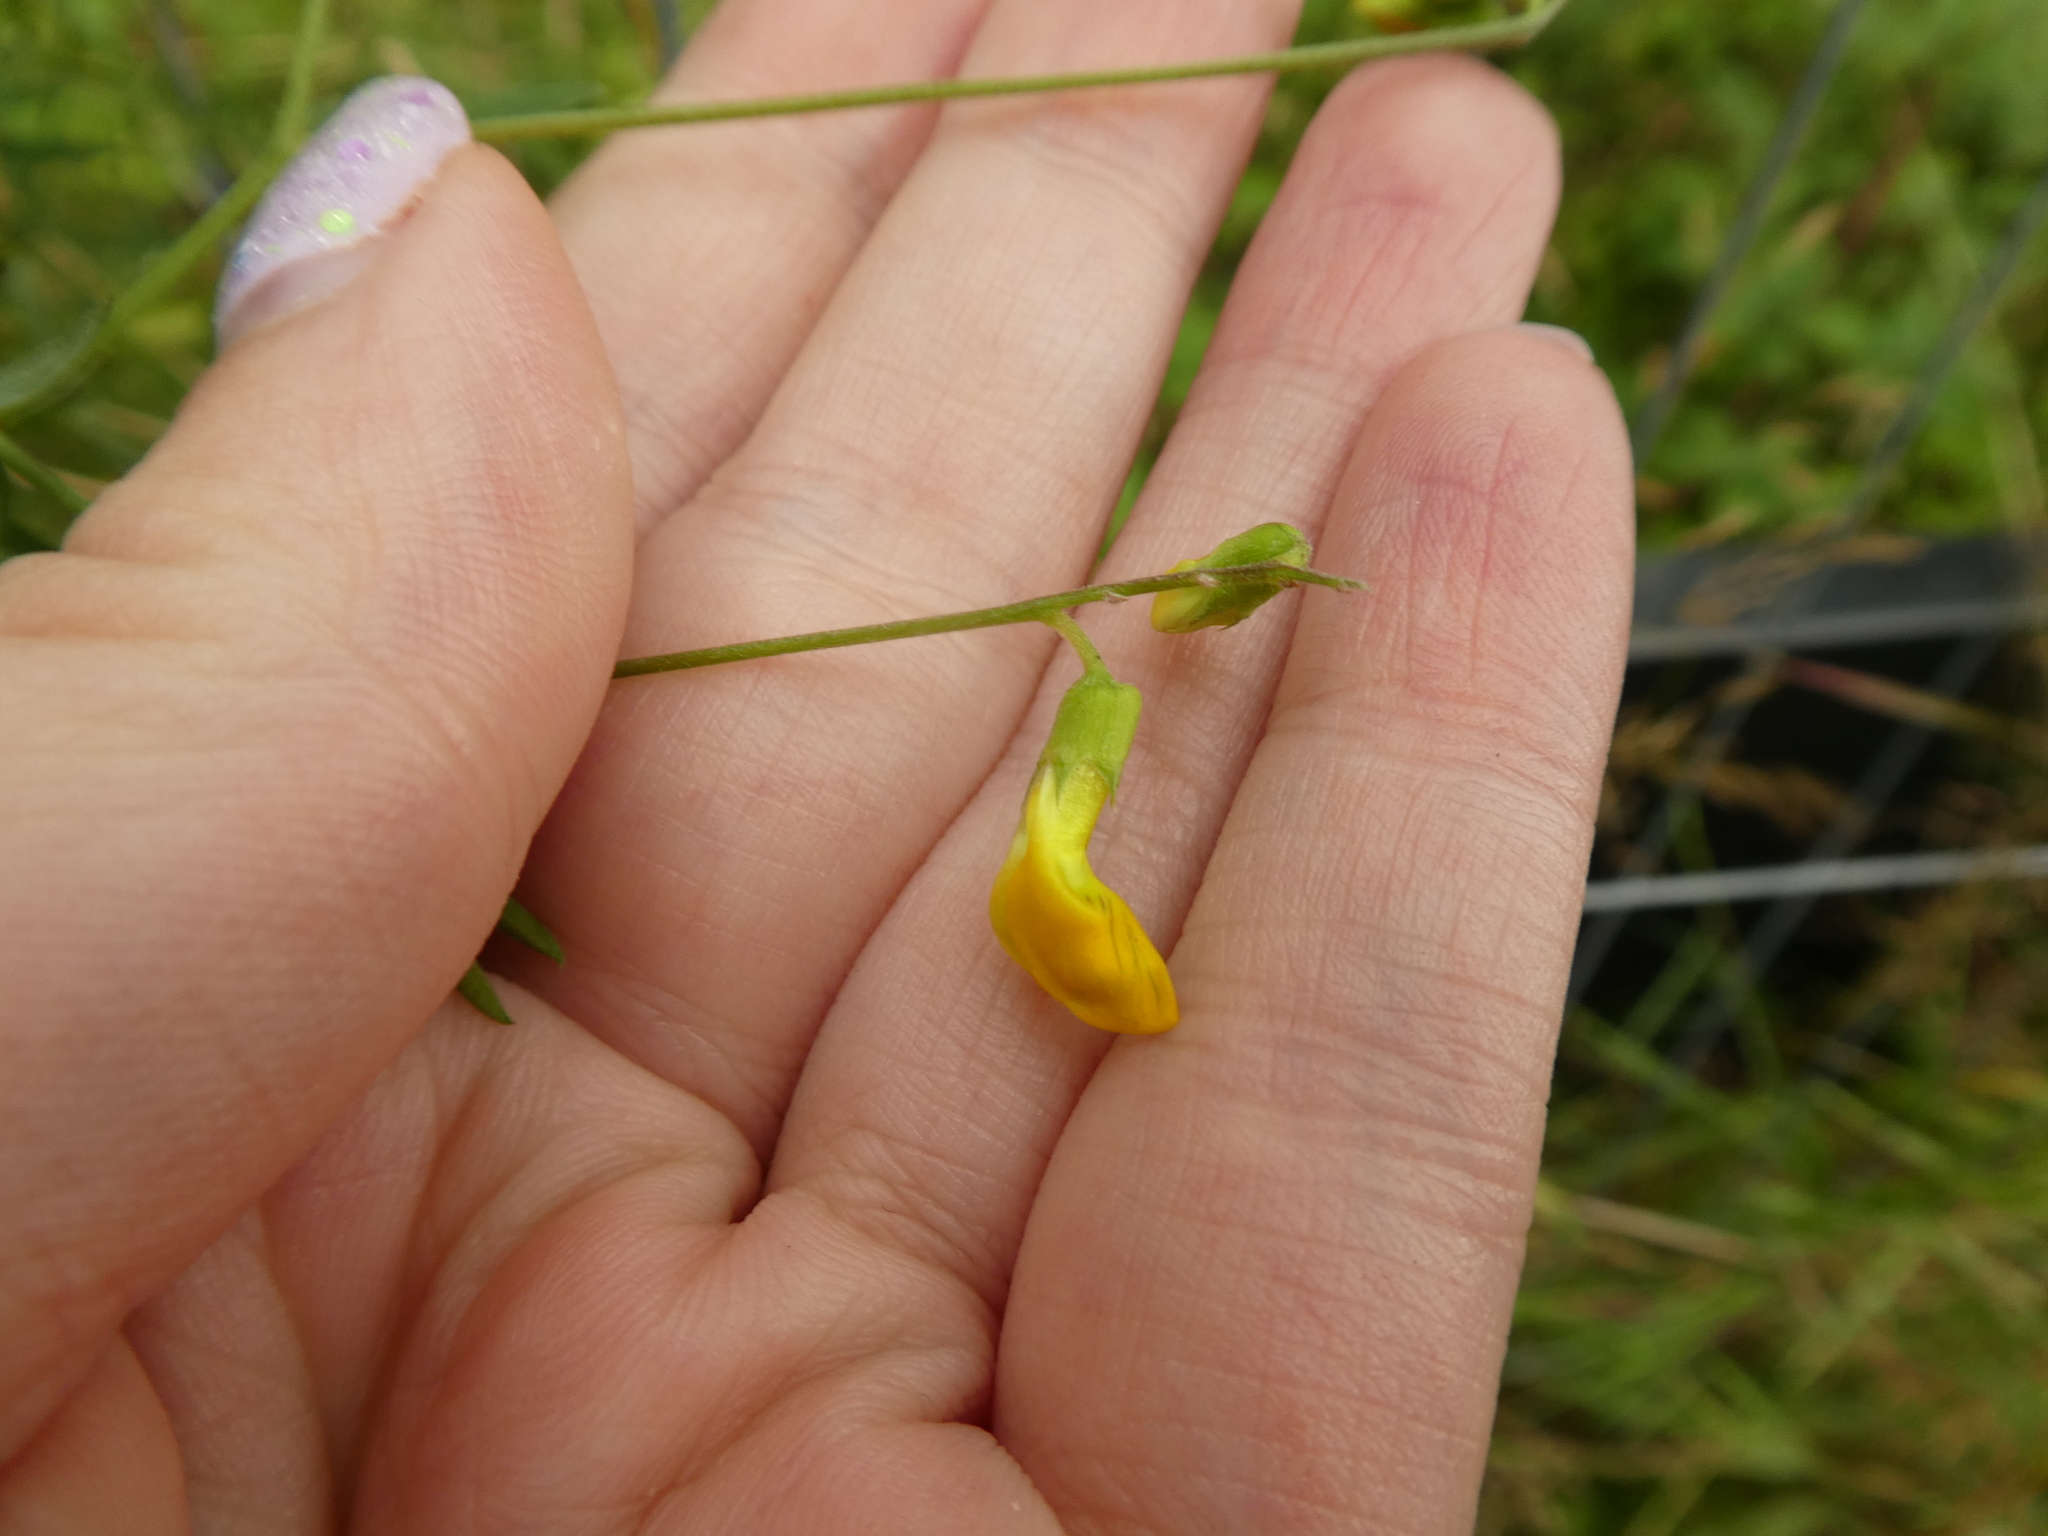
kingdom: Plantae
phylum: Tracheophyta
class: Magnoliopsida
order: Fabales
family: Fabaceae
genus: Lathyrus
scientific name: Lathyrus pratensis
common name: Meadow vetchling
